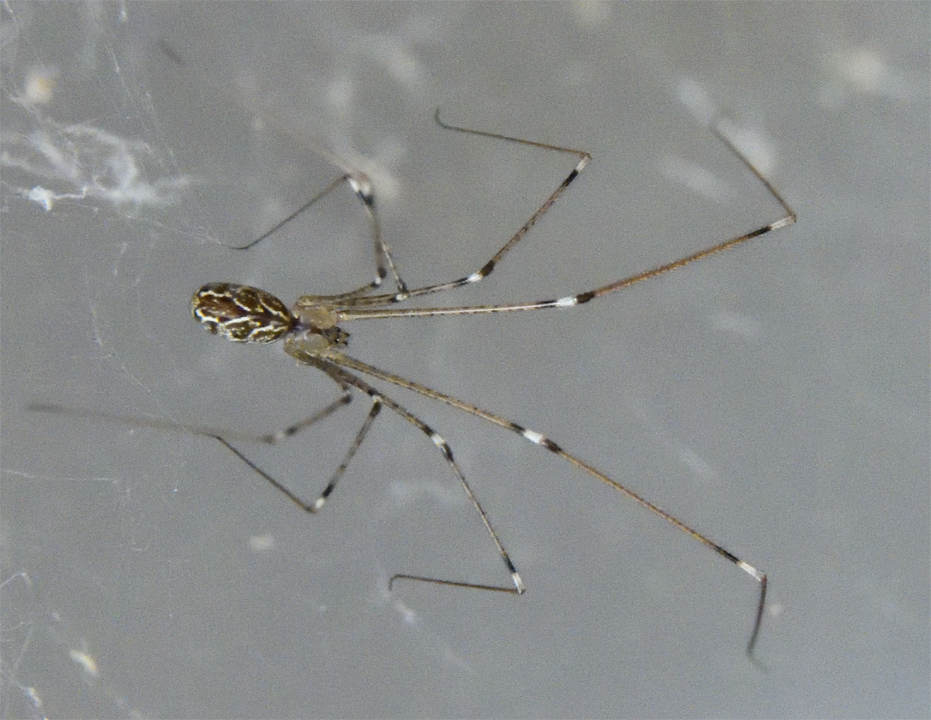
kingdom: Animalia
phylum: Arthropoda
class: Arachnida
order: Araneae
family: Pholcidae
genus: Holocnemus
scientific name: Holocnemus pluchei
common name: Marbled cellar spider
